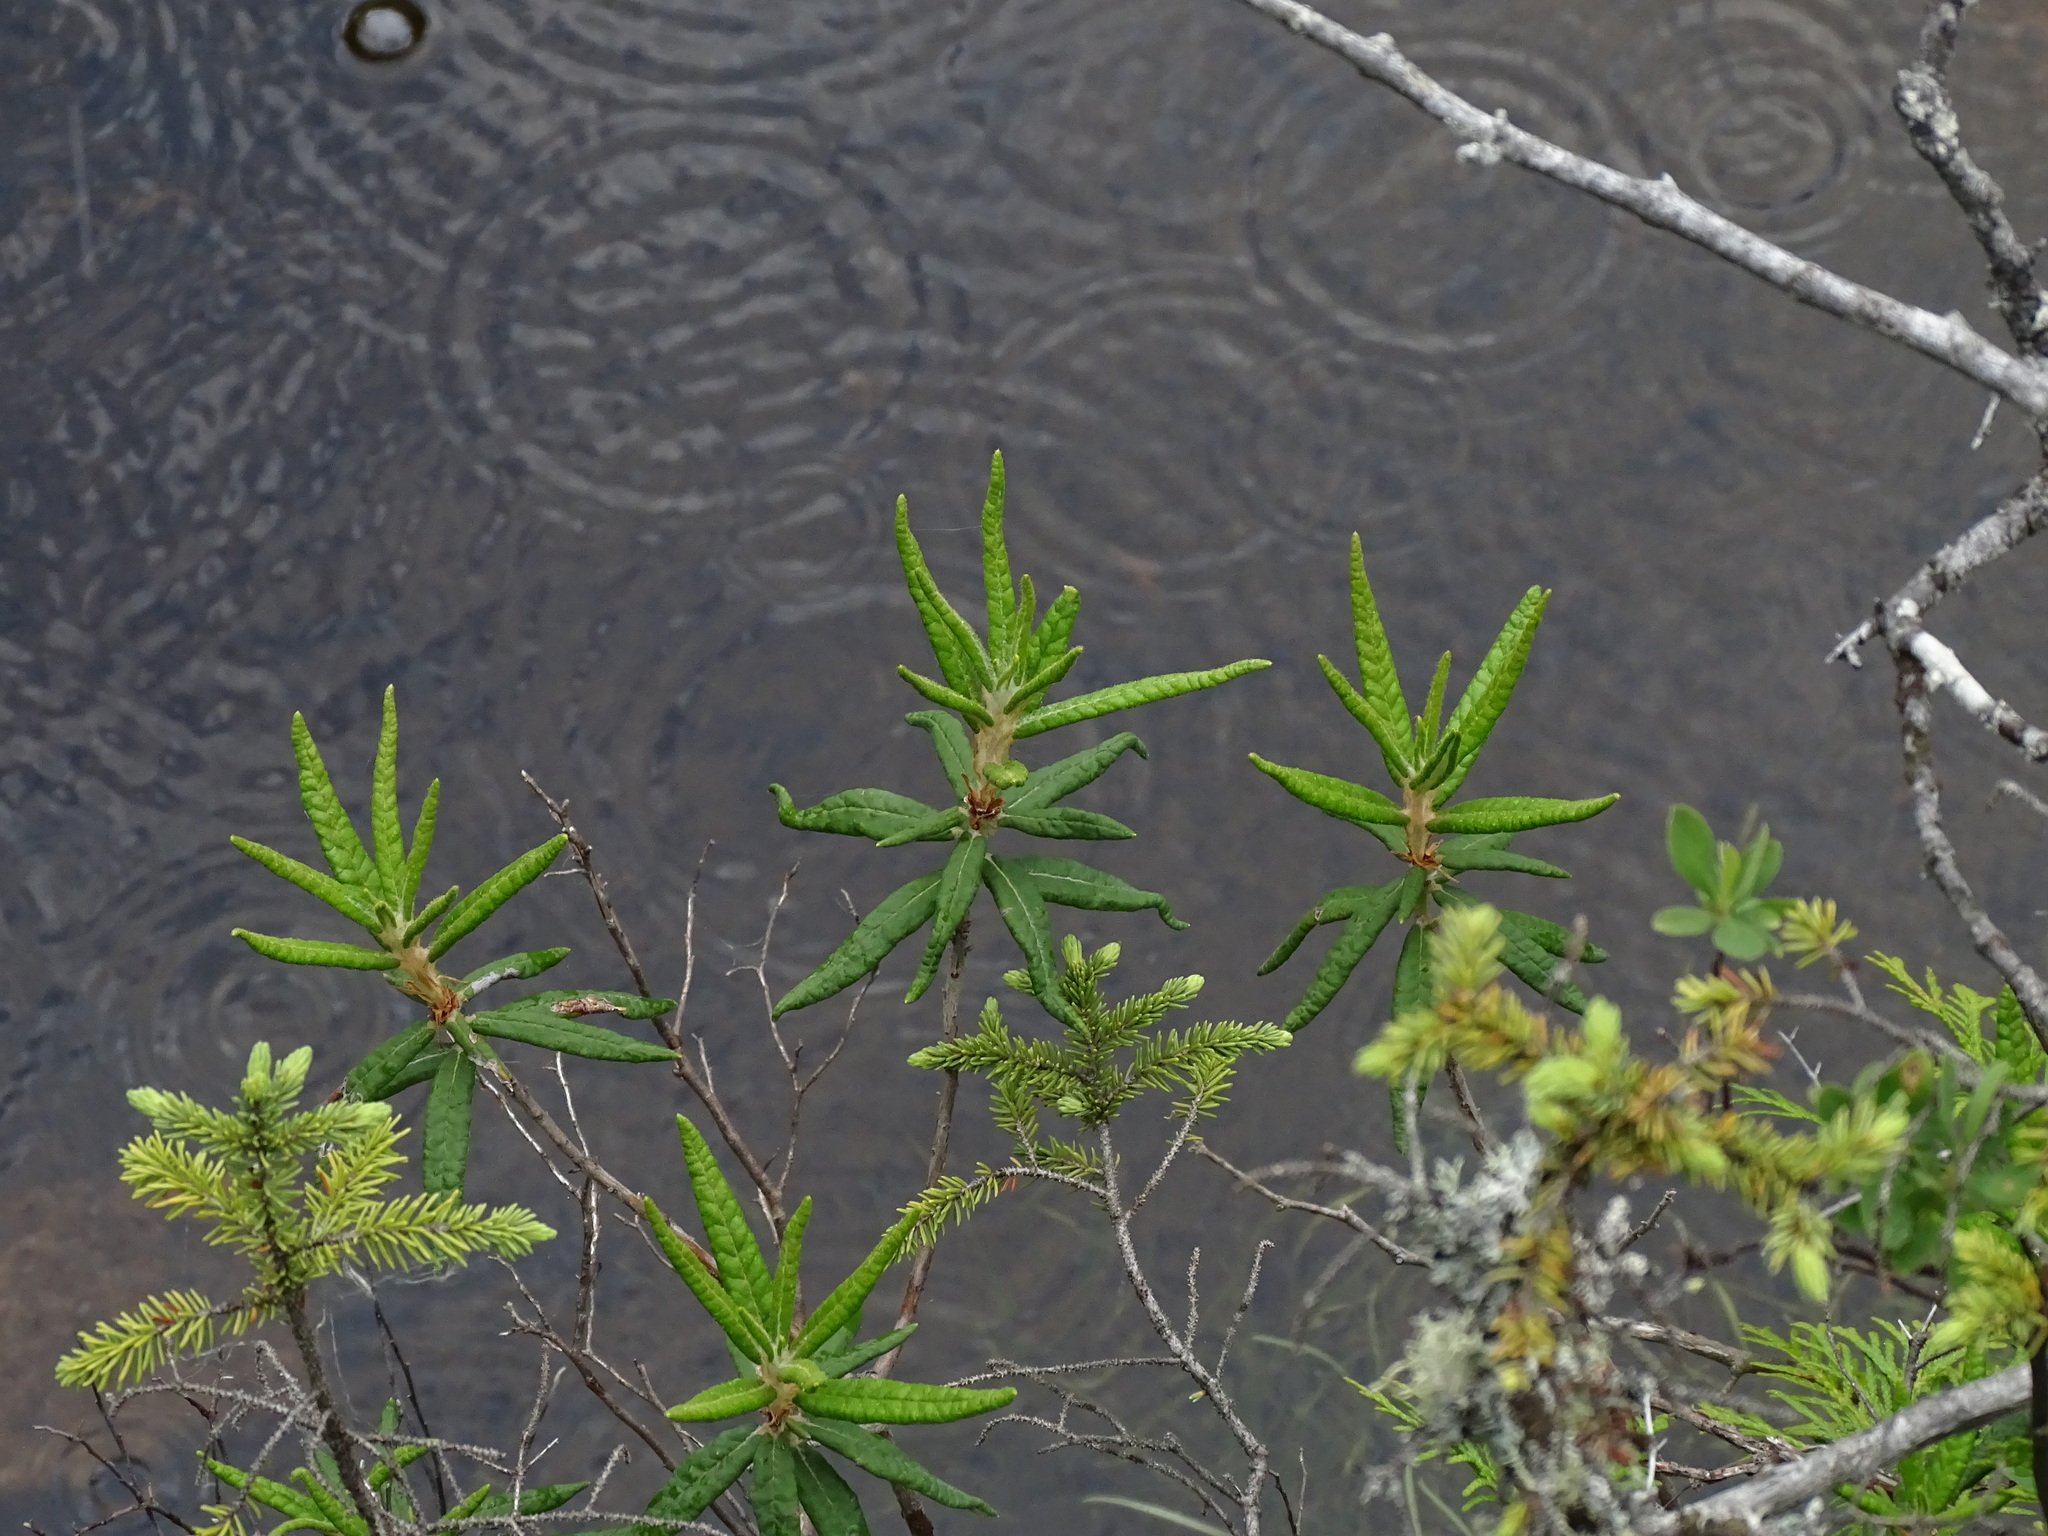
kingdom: Plantae
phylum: Tracheophyta
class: Magnoliopsida
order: Ericales
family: Ericaceae
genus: Rhododendron
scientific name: Rhododendron groenlandicum
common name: Bog labrador tea
